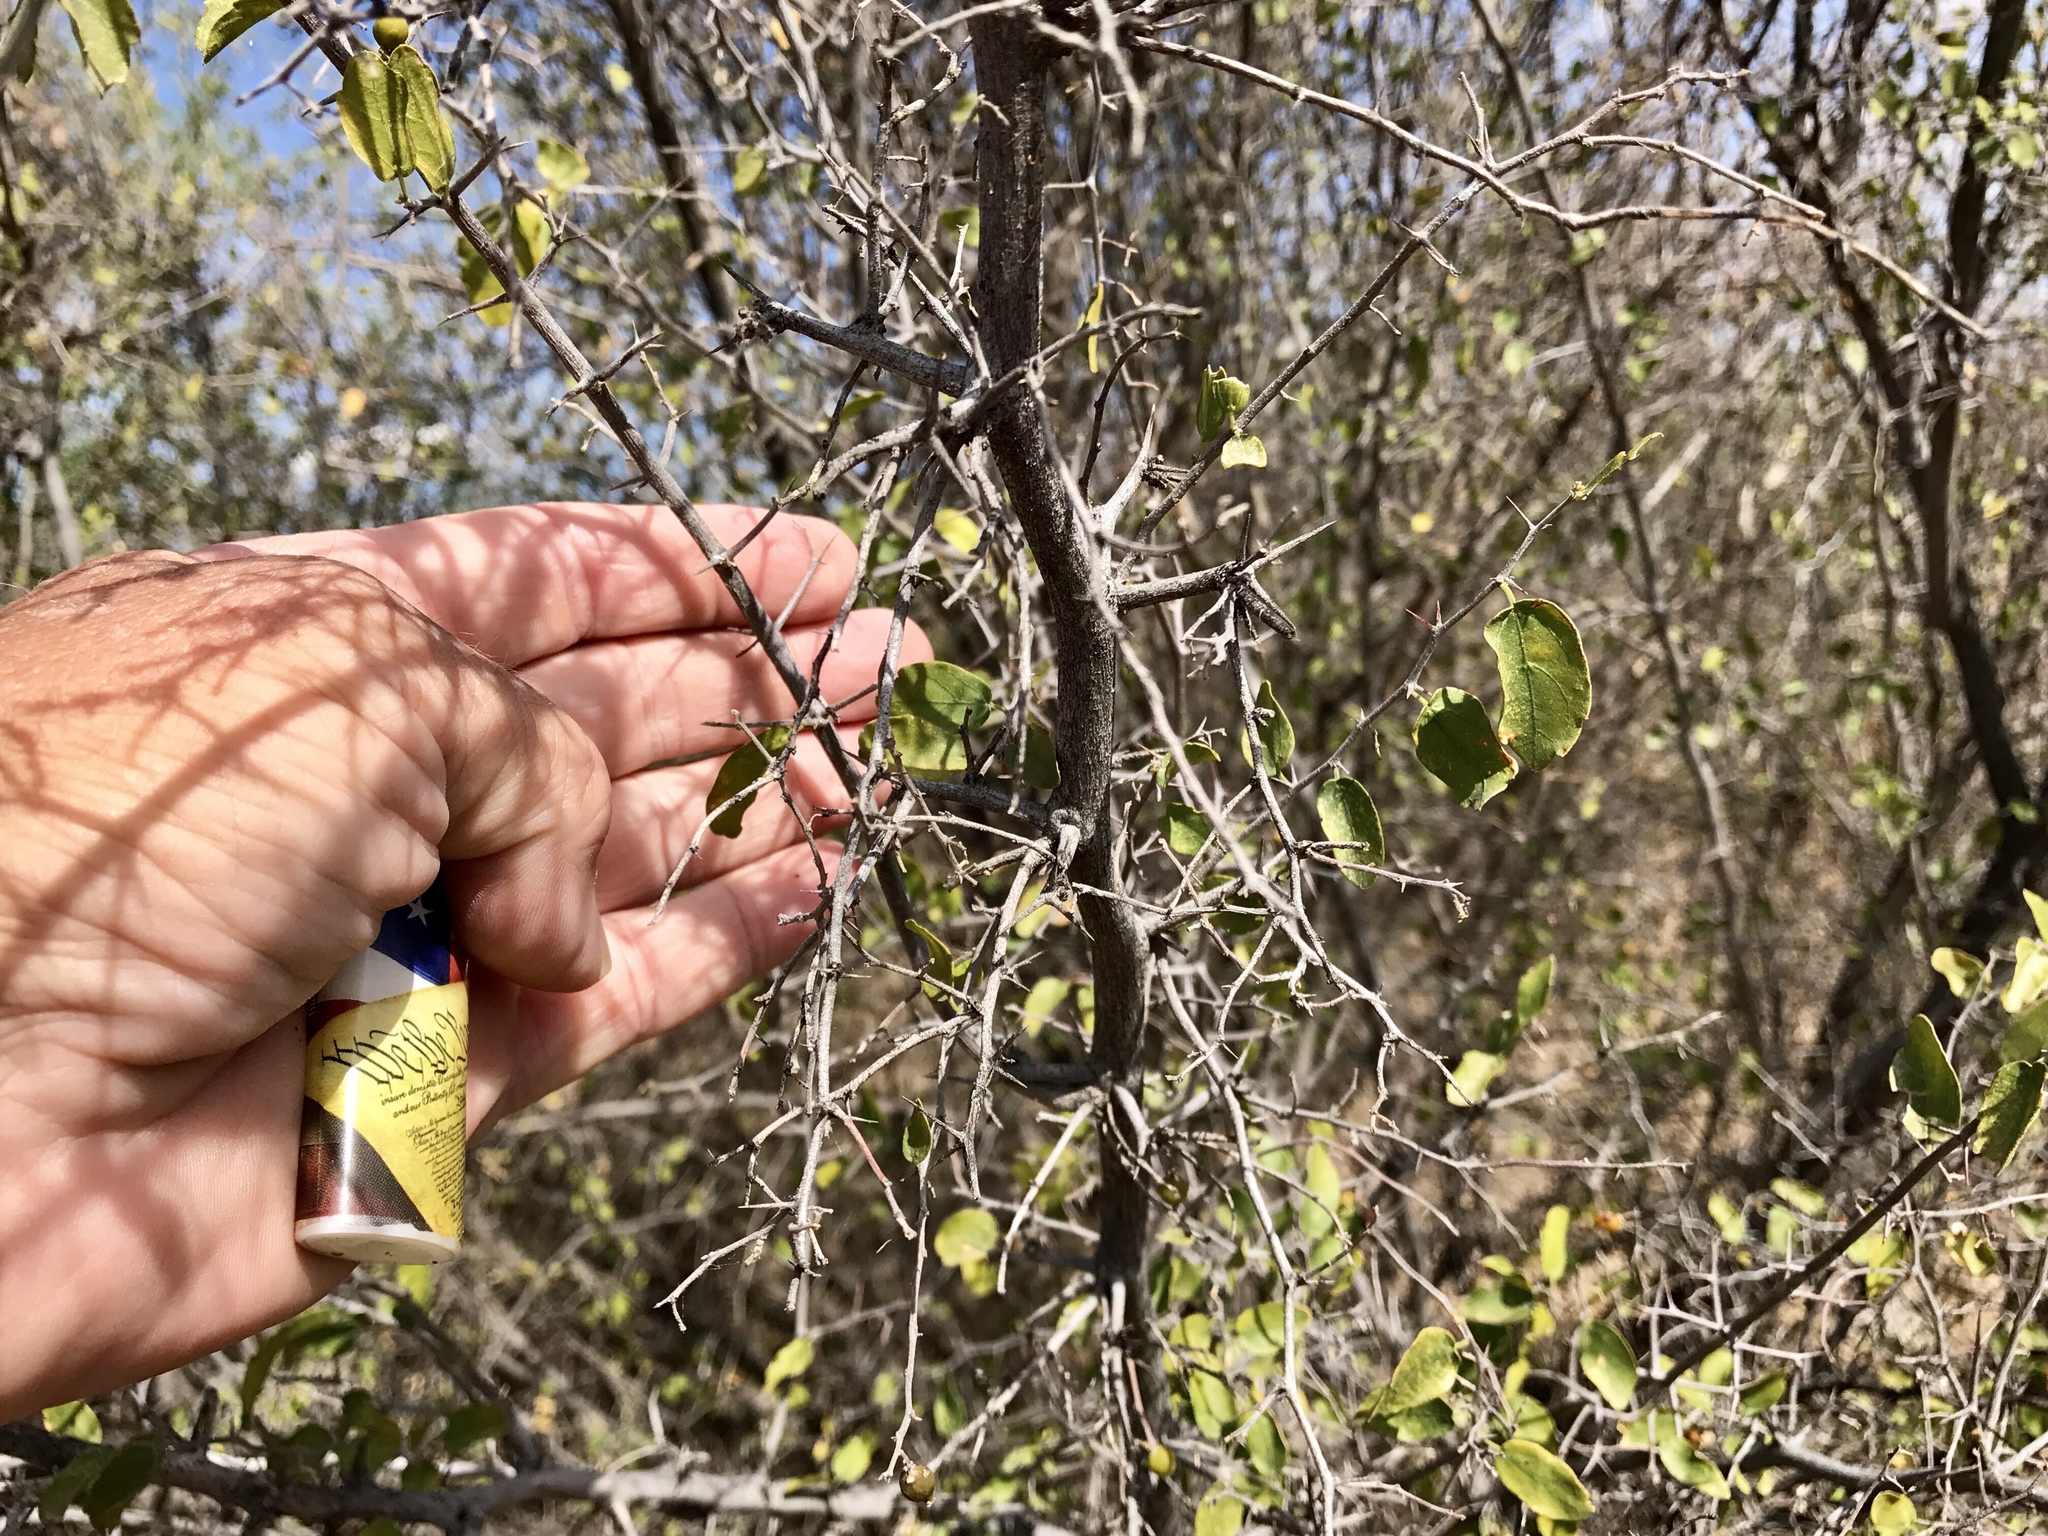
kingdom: Plantae
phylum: Tracheophyta
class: Magnoliopsida
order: Rosales
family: Cannabaceae
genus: Celtis
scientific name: Celtis pallida
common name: Desert hackberry
